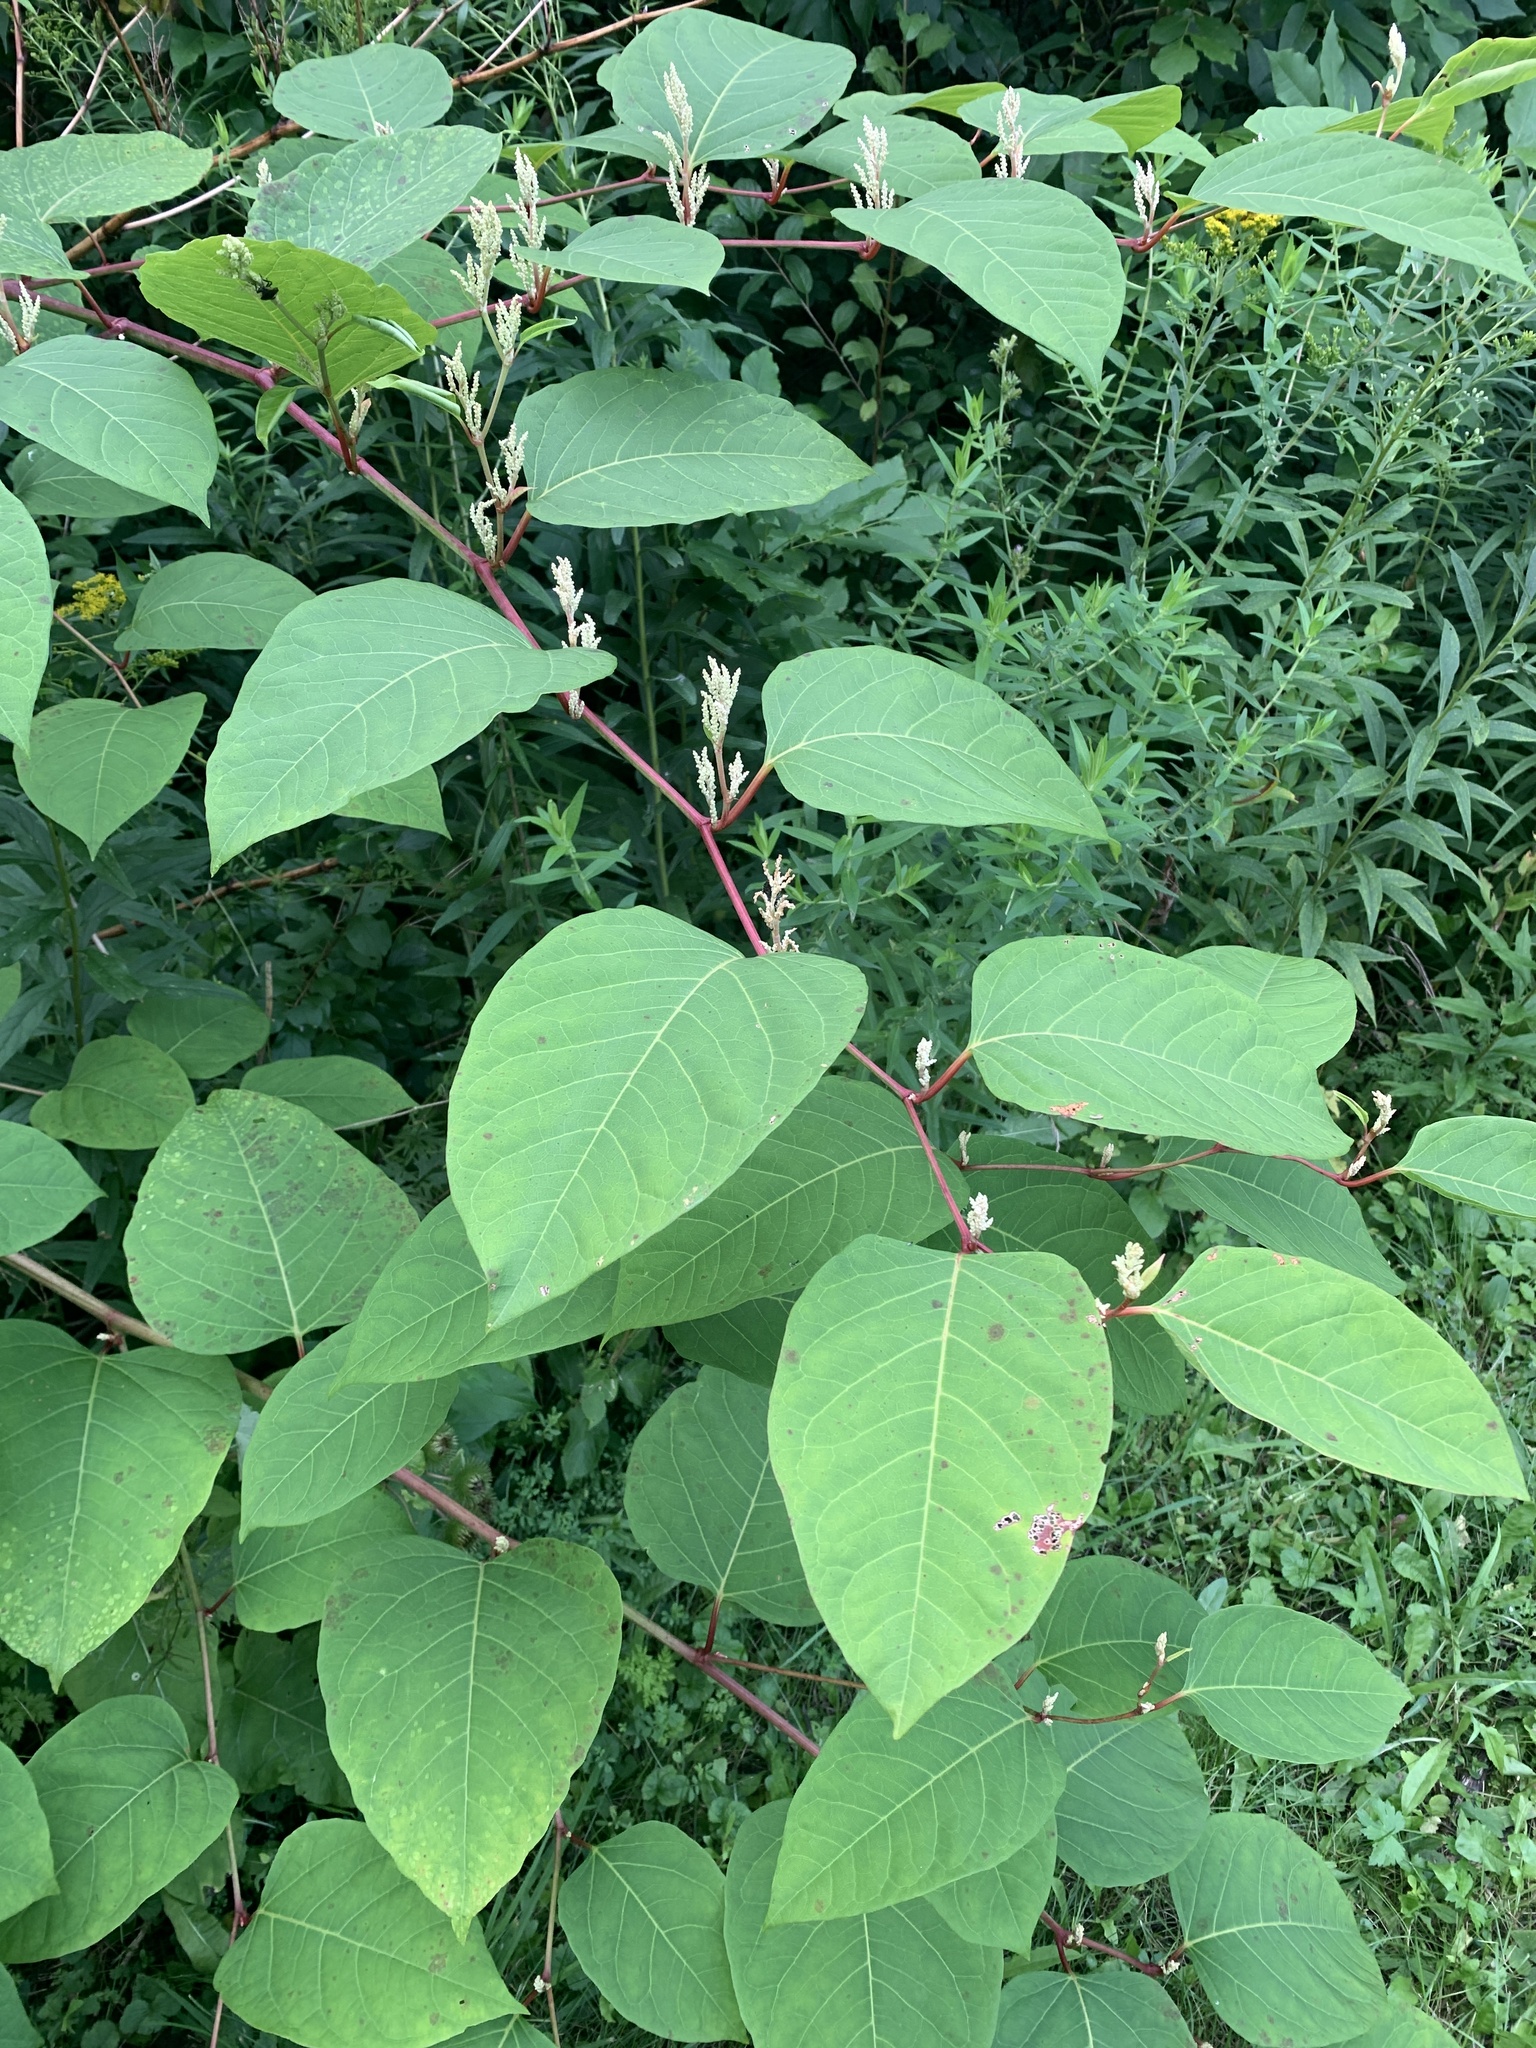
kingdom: Plantae
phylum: Tracheophyta
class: Magnoliopsida
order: Caryophyllales
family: Polygonaceae
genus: Reynoutria
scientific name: Reynoutria japonica
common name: Japanese knotweed
